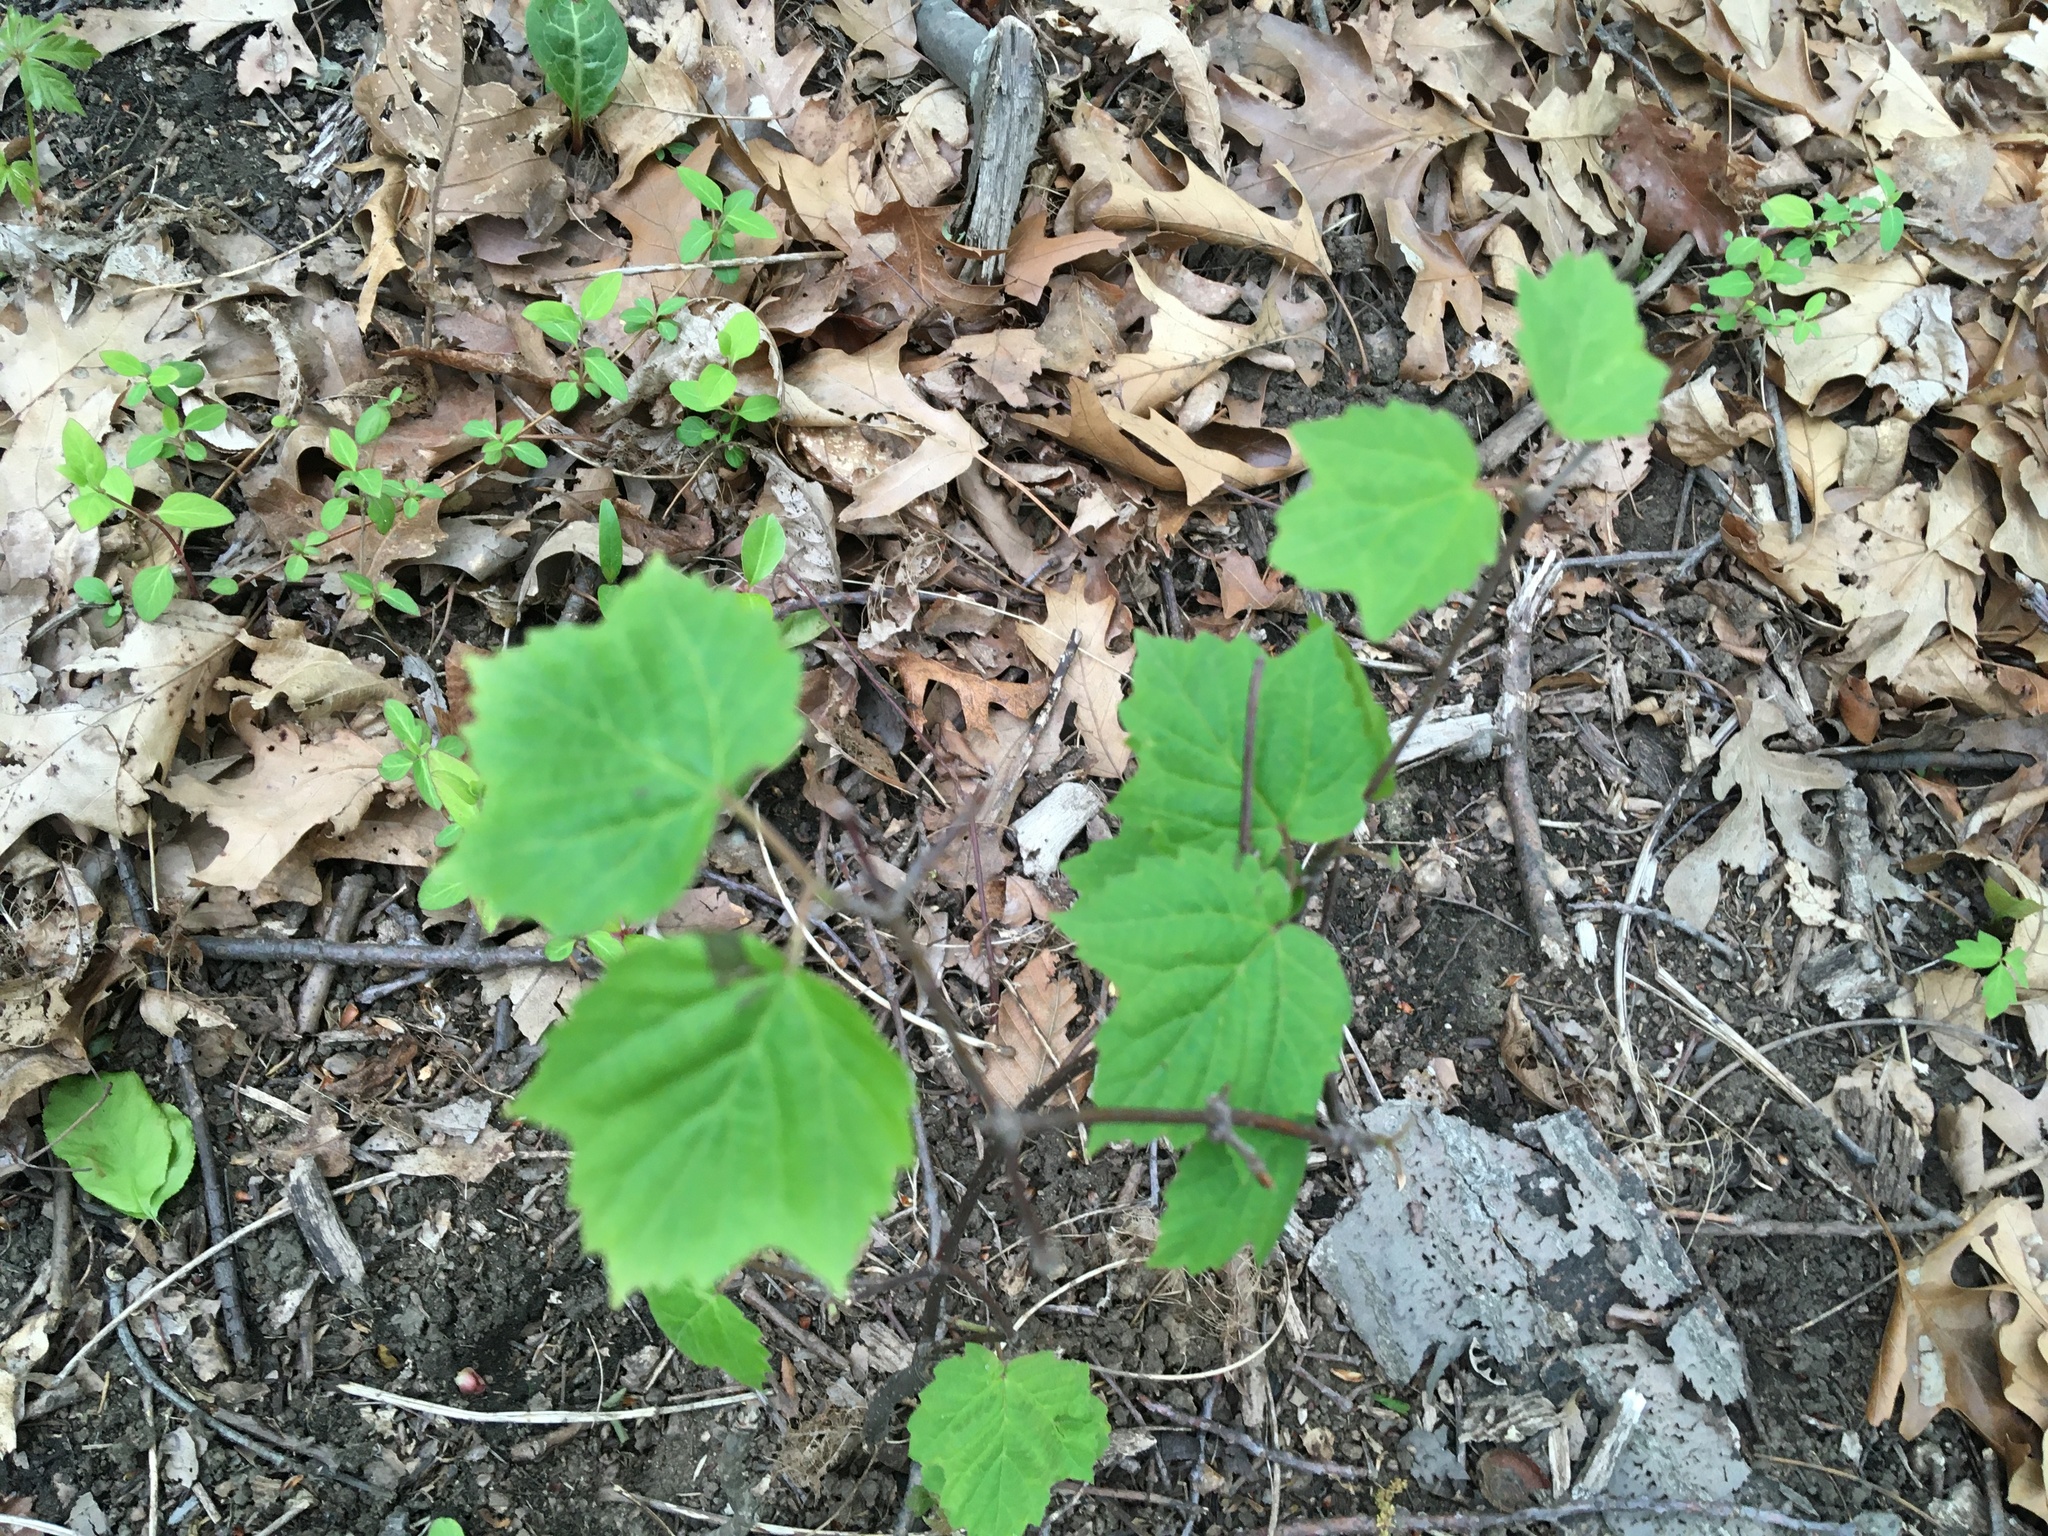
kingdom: Plantae
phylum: Tracheophyta
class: Magnoliopsida
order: Dipsacales
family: Viburnaceae
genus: Viburnum
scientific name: Viburnum acerifolium
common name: Dockmackie
